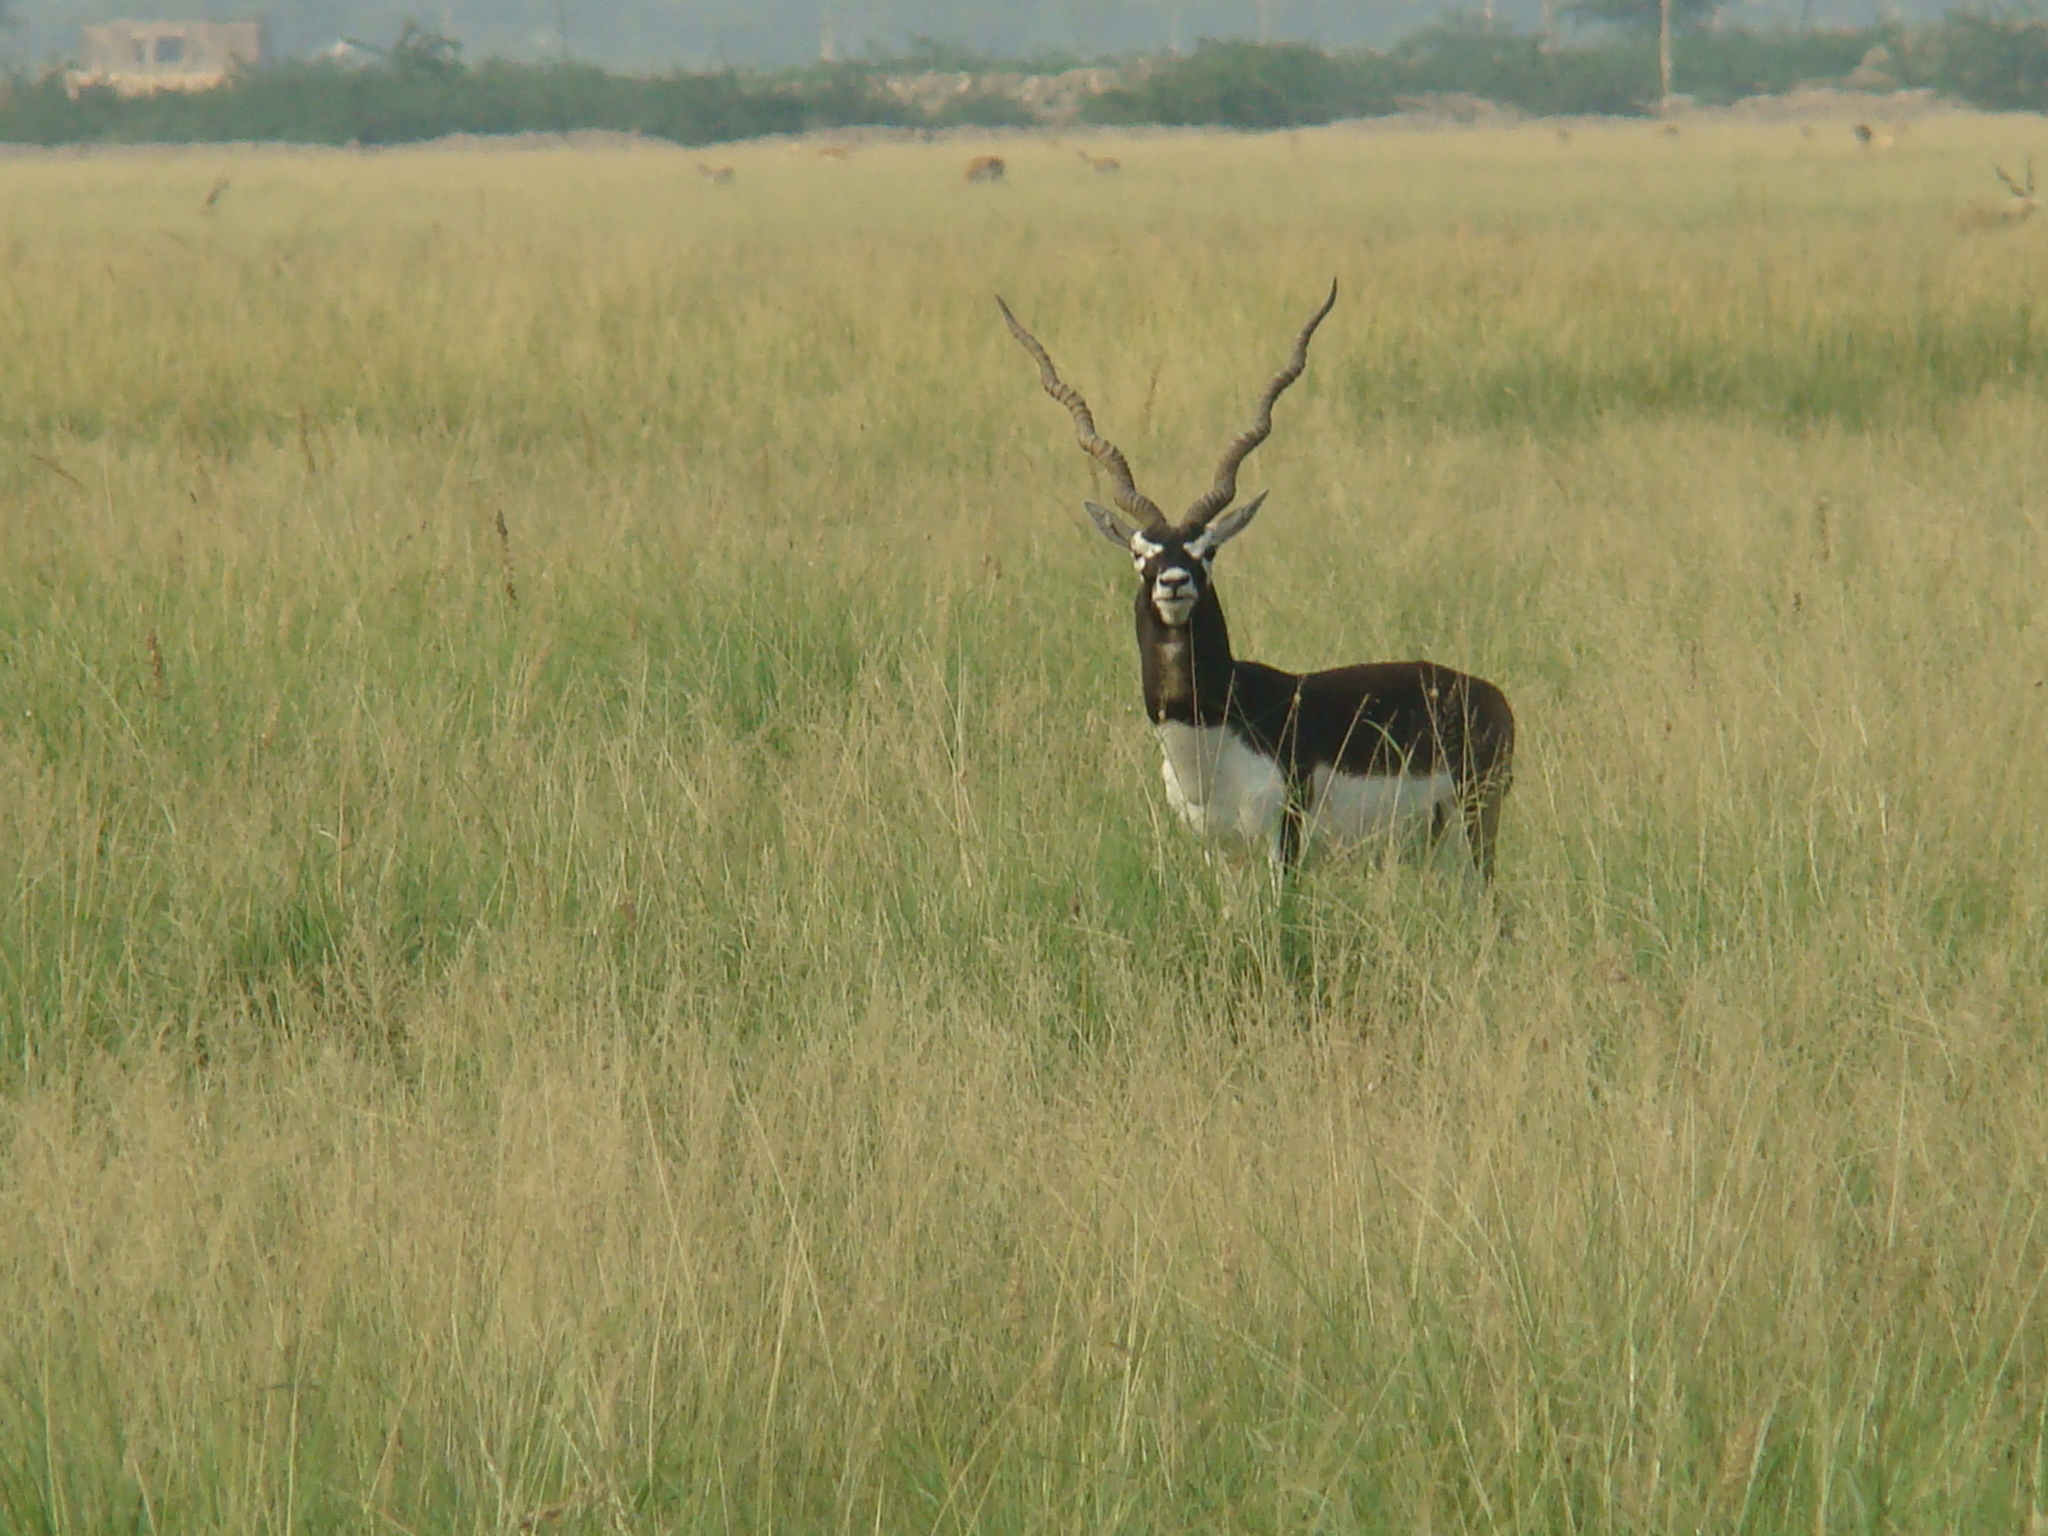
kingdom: Animalia
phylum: Chordata
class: Mammalia
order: Artiodactyla
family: Bovidae
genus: Antilope
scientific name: Antilope cervicapra
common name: Blackbuck
